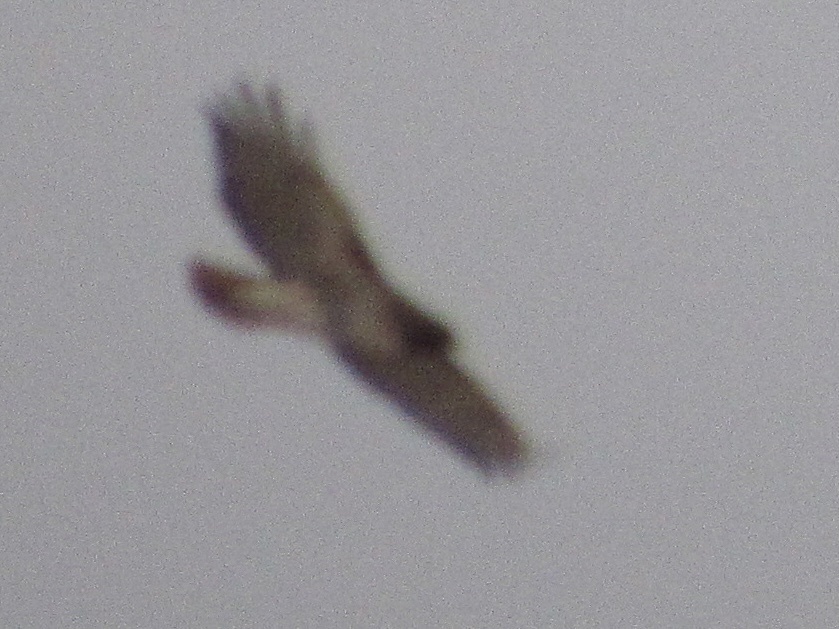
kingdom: Animalia
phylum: Chordata
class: Aves
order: Accipitriformes
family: Accipitridae
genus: Buteo
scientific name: Buteo jamaicensis
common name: Red-tailed hawk
